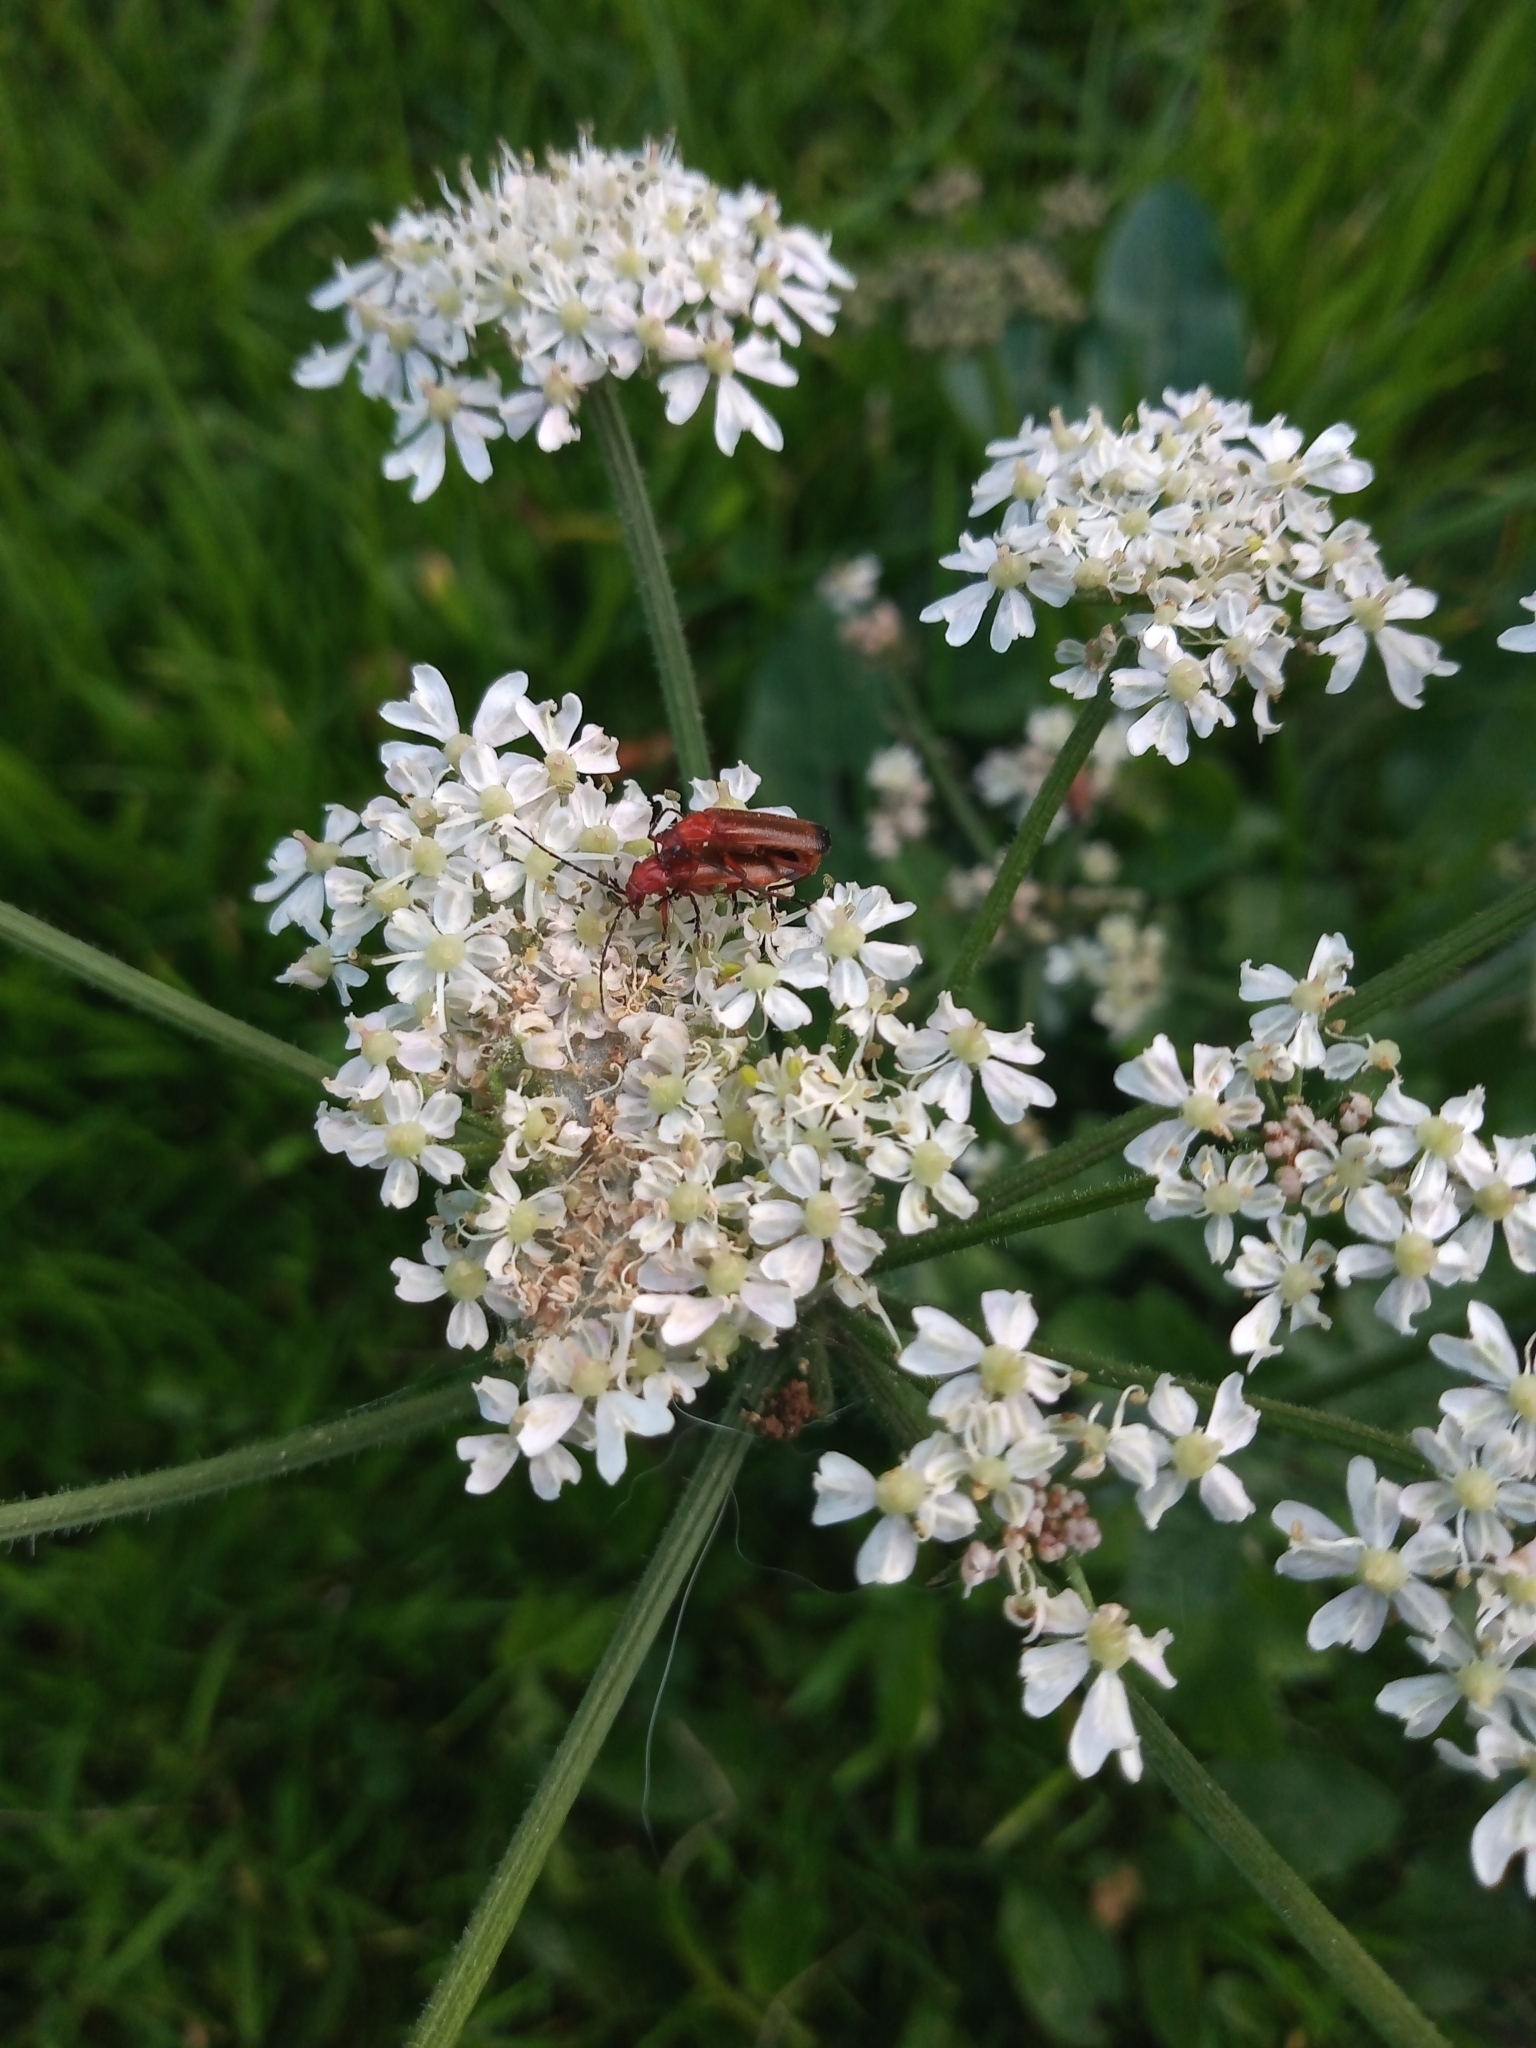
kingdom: Animalia
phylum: Arthropoda
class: Insecta
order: Coleoptera
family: Cantharidae
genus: Rhagonycha
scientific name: Rhagonycha fulva
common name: Common red soldier beetle
